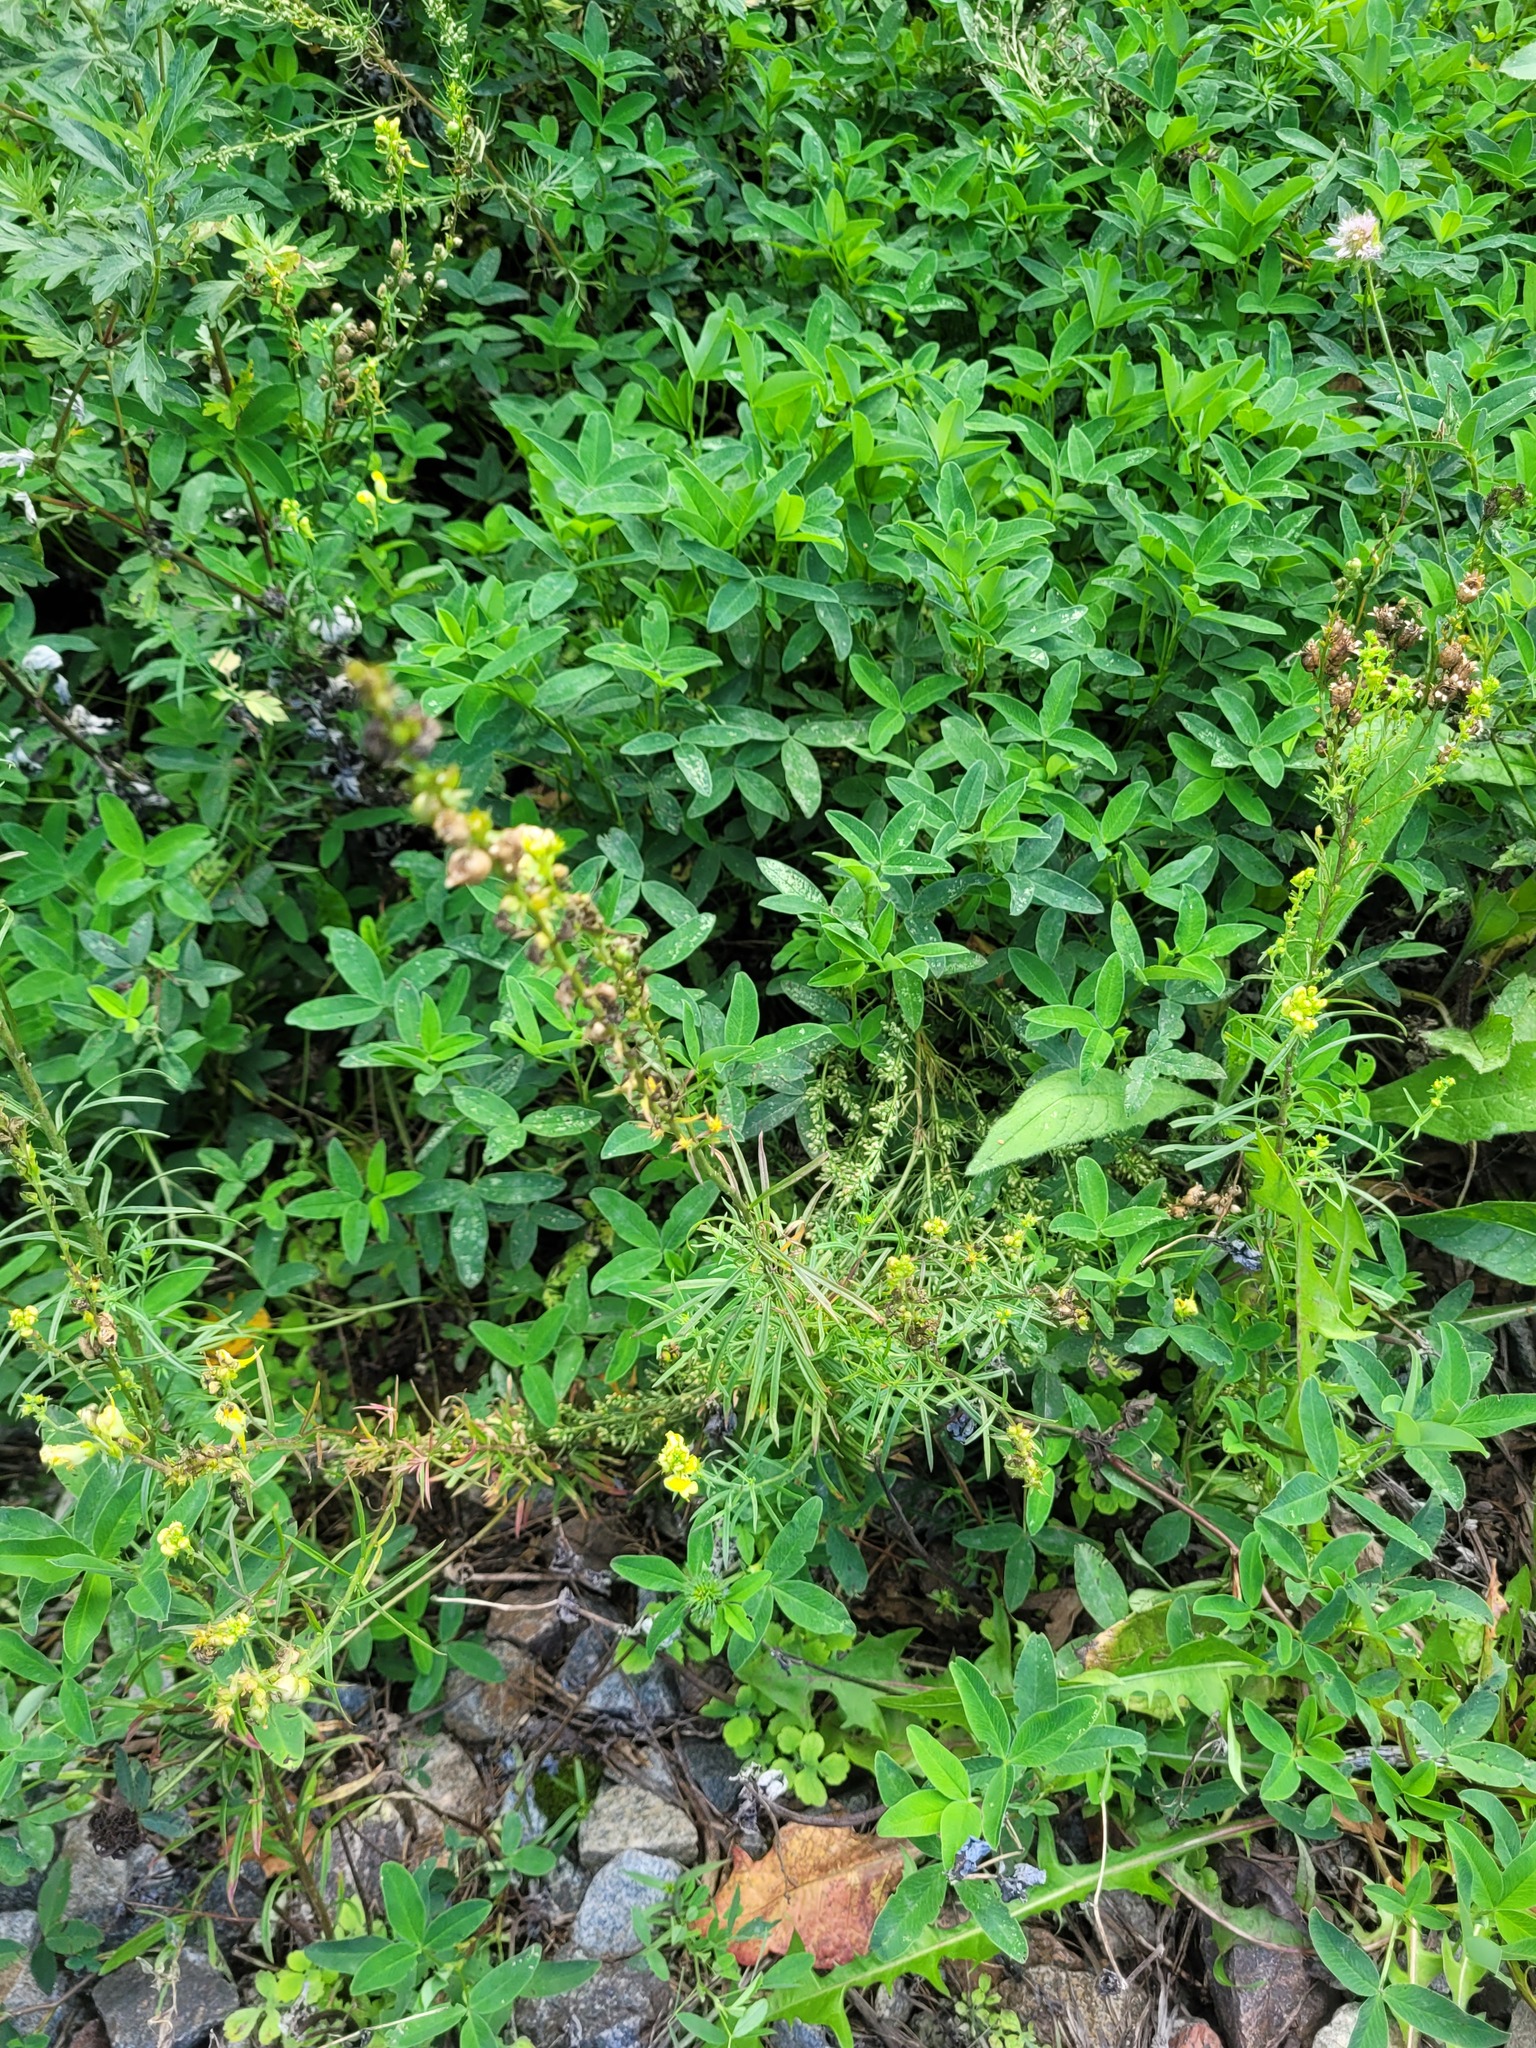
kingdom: Plantae
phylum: Tracheophyta
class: Magnoliopsida
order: Lamiales
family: Plantaginaceae
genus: Linaria
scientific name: Linaria vulgaris
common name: Butter and eggs
